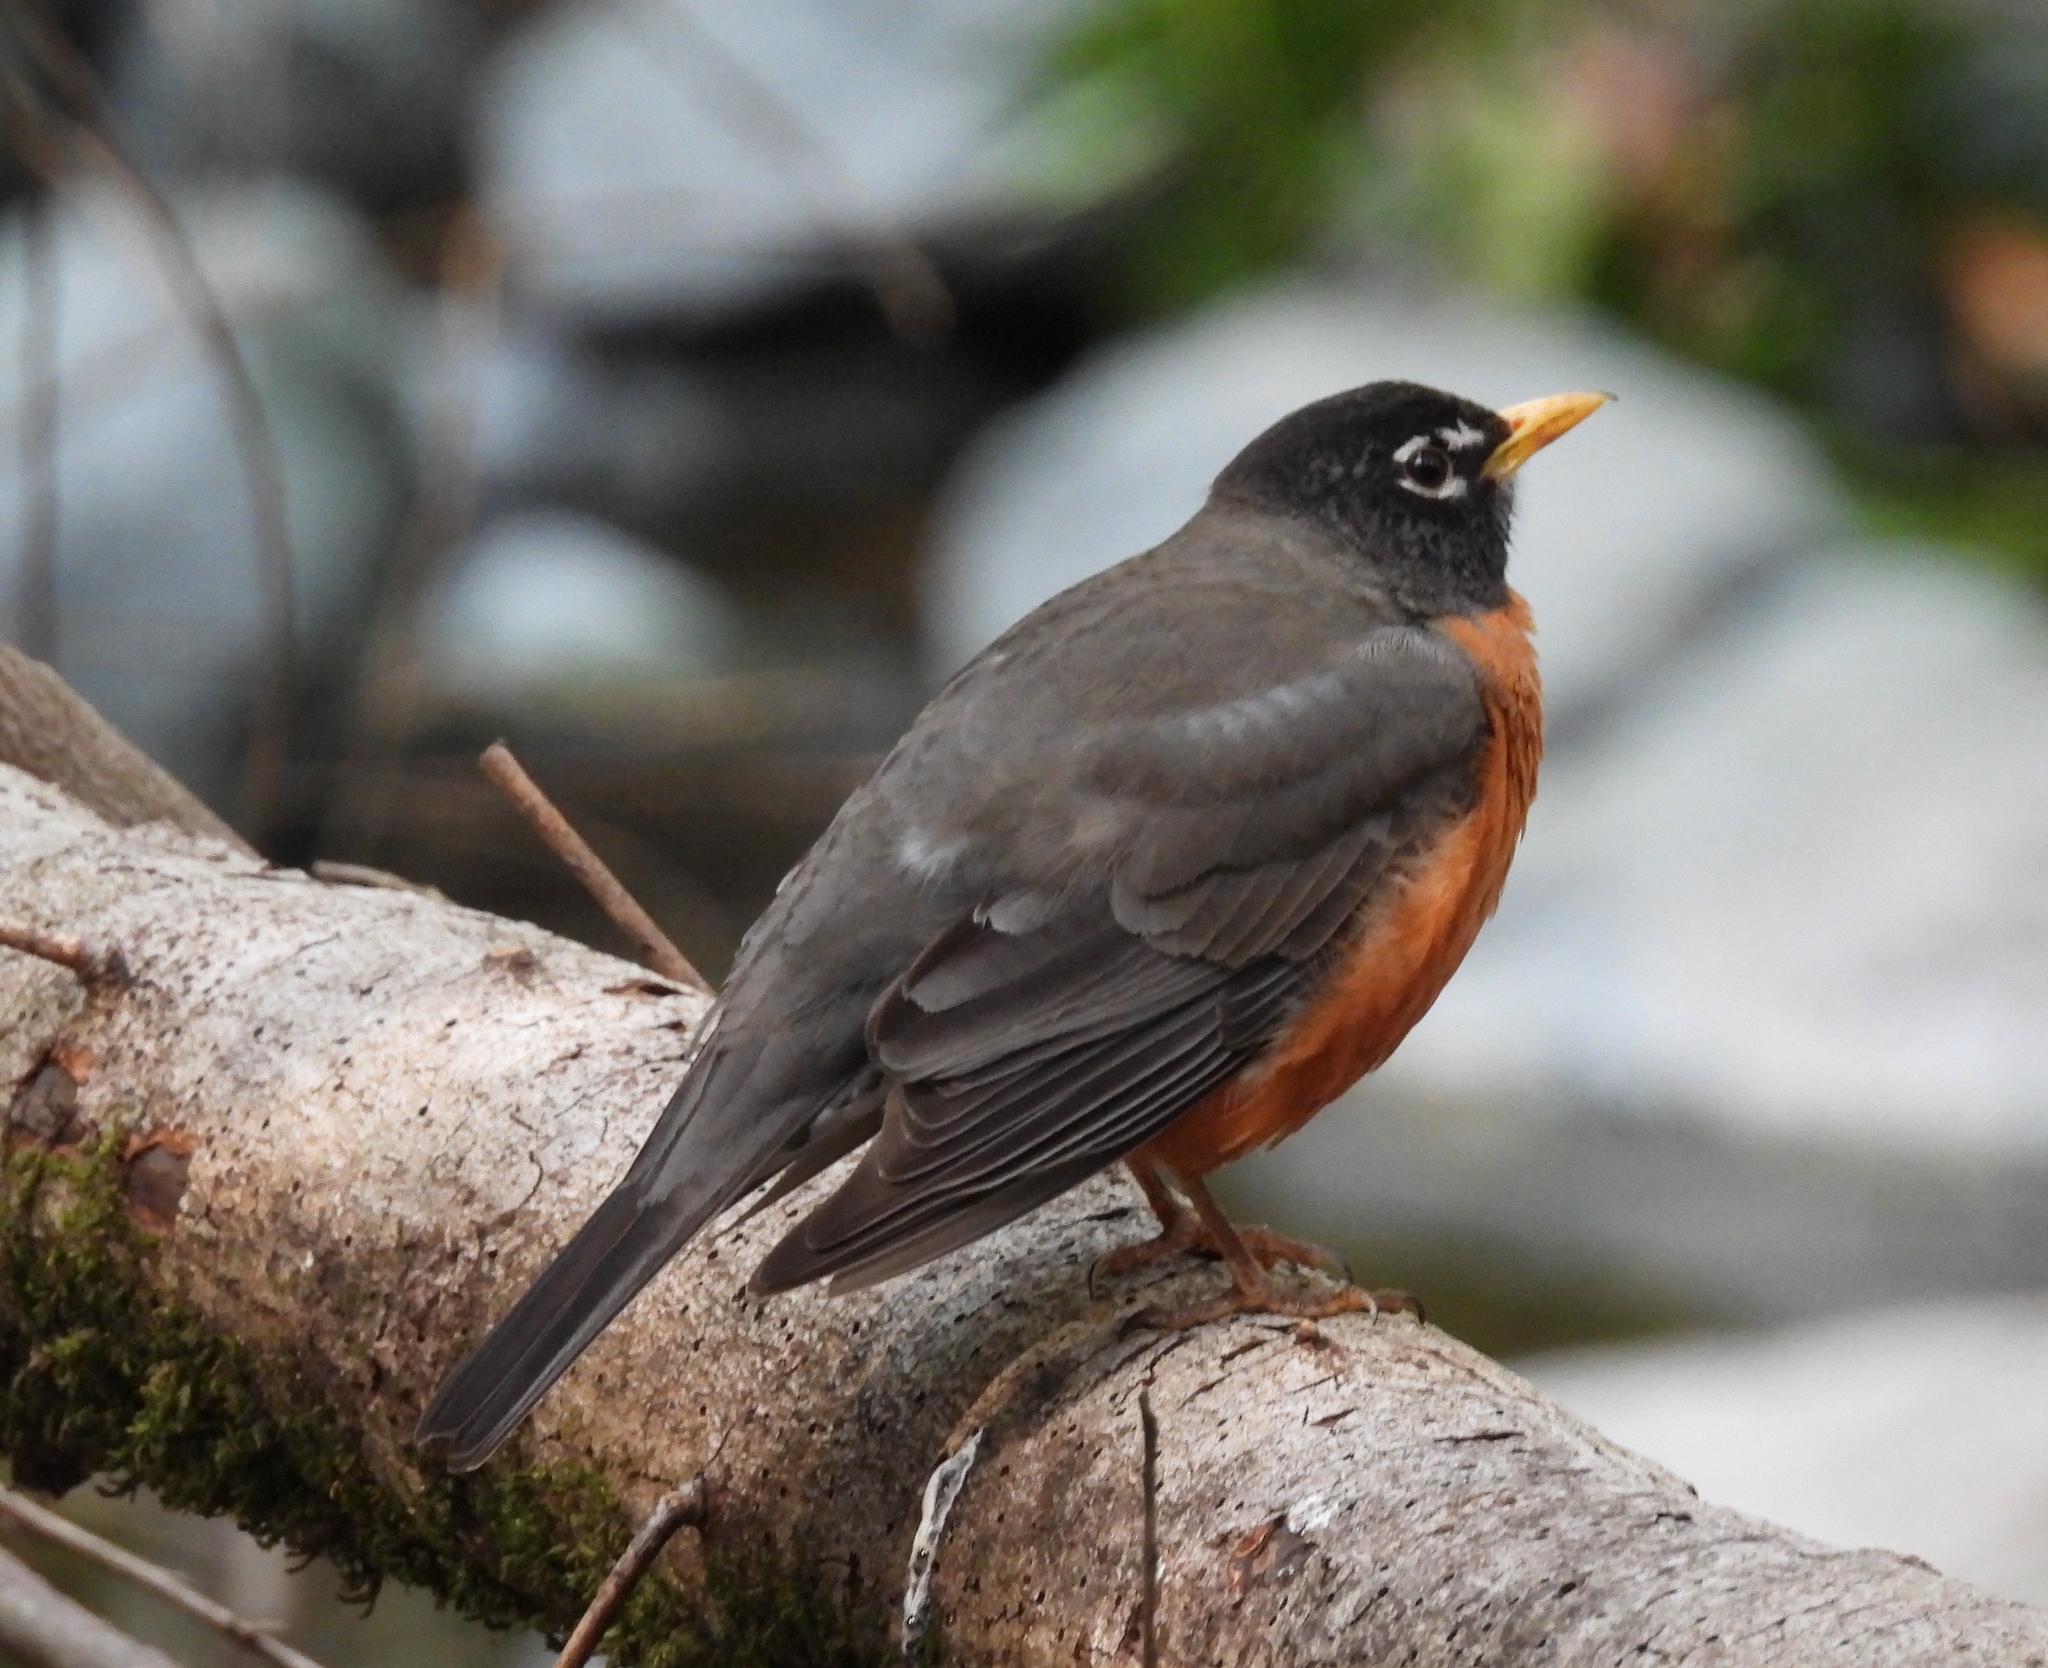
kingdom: Animalia
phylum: Chordata
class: Aves
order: Passeriformes
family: Turdidae
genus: Turdus
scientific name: Turdus migratorius
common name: American robin
